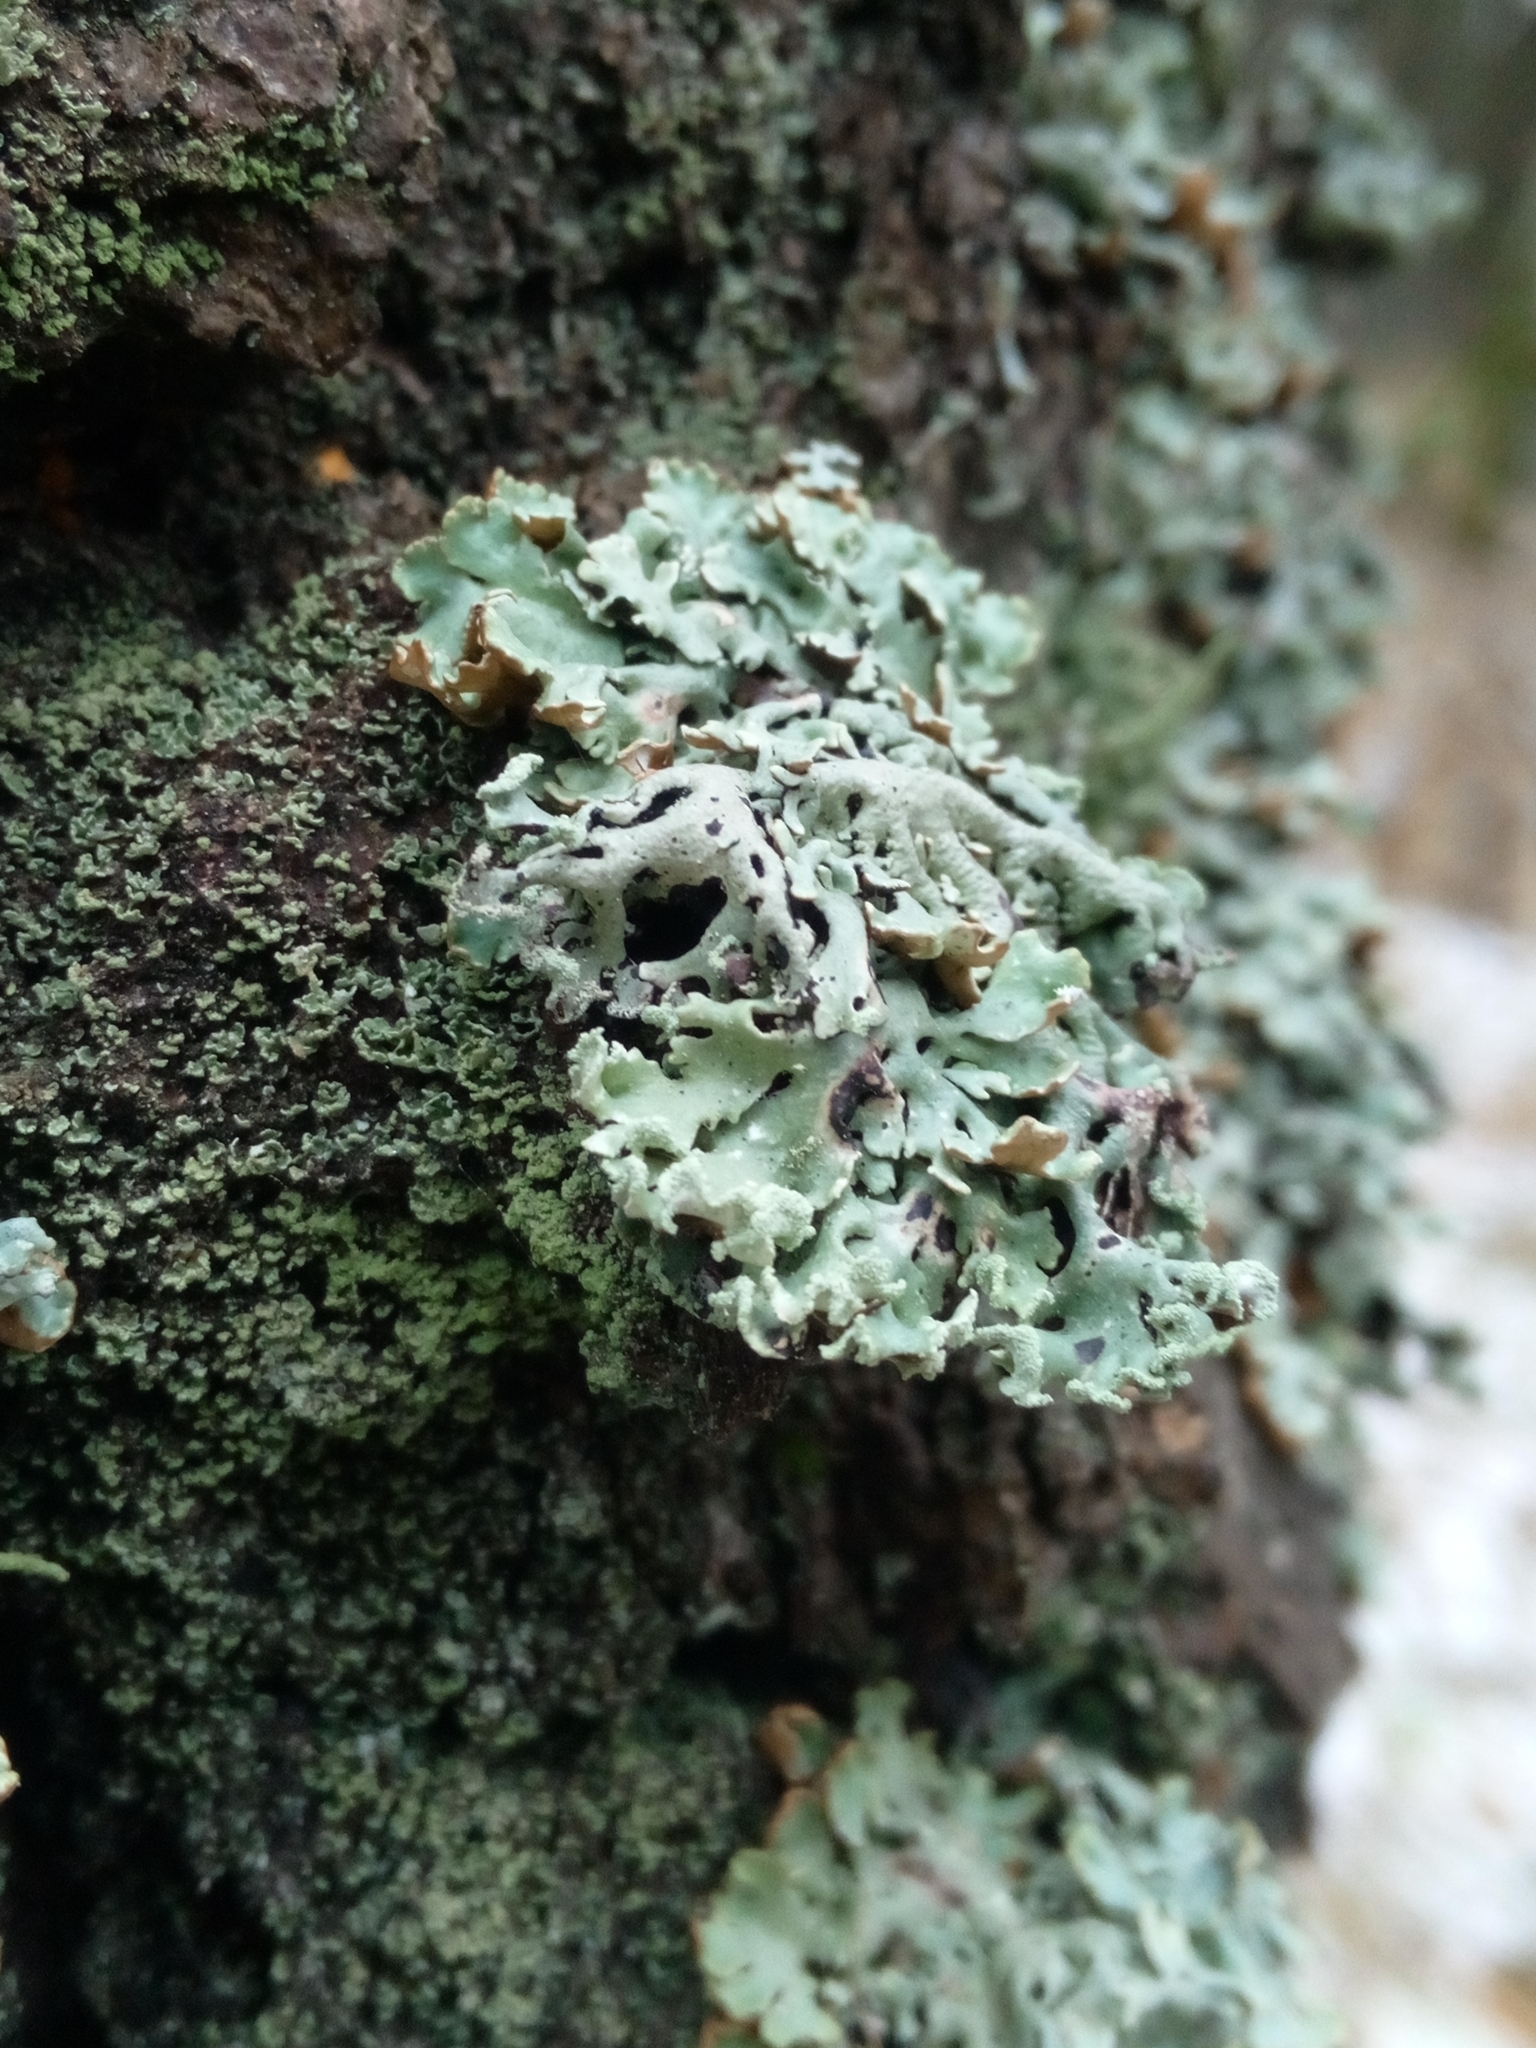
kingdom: Fungi
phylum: Ascomycota
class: Lecanoromycetes
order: Lecanorales
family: Parmeliaceae
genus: Hypogymnia
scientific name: Hypogymnia physodes
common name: Dark crottle
